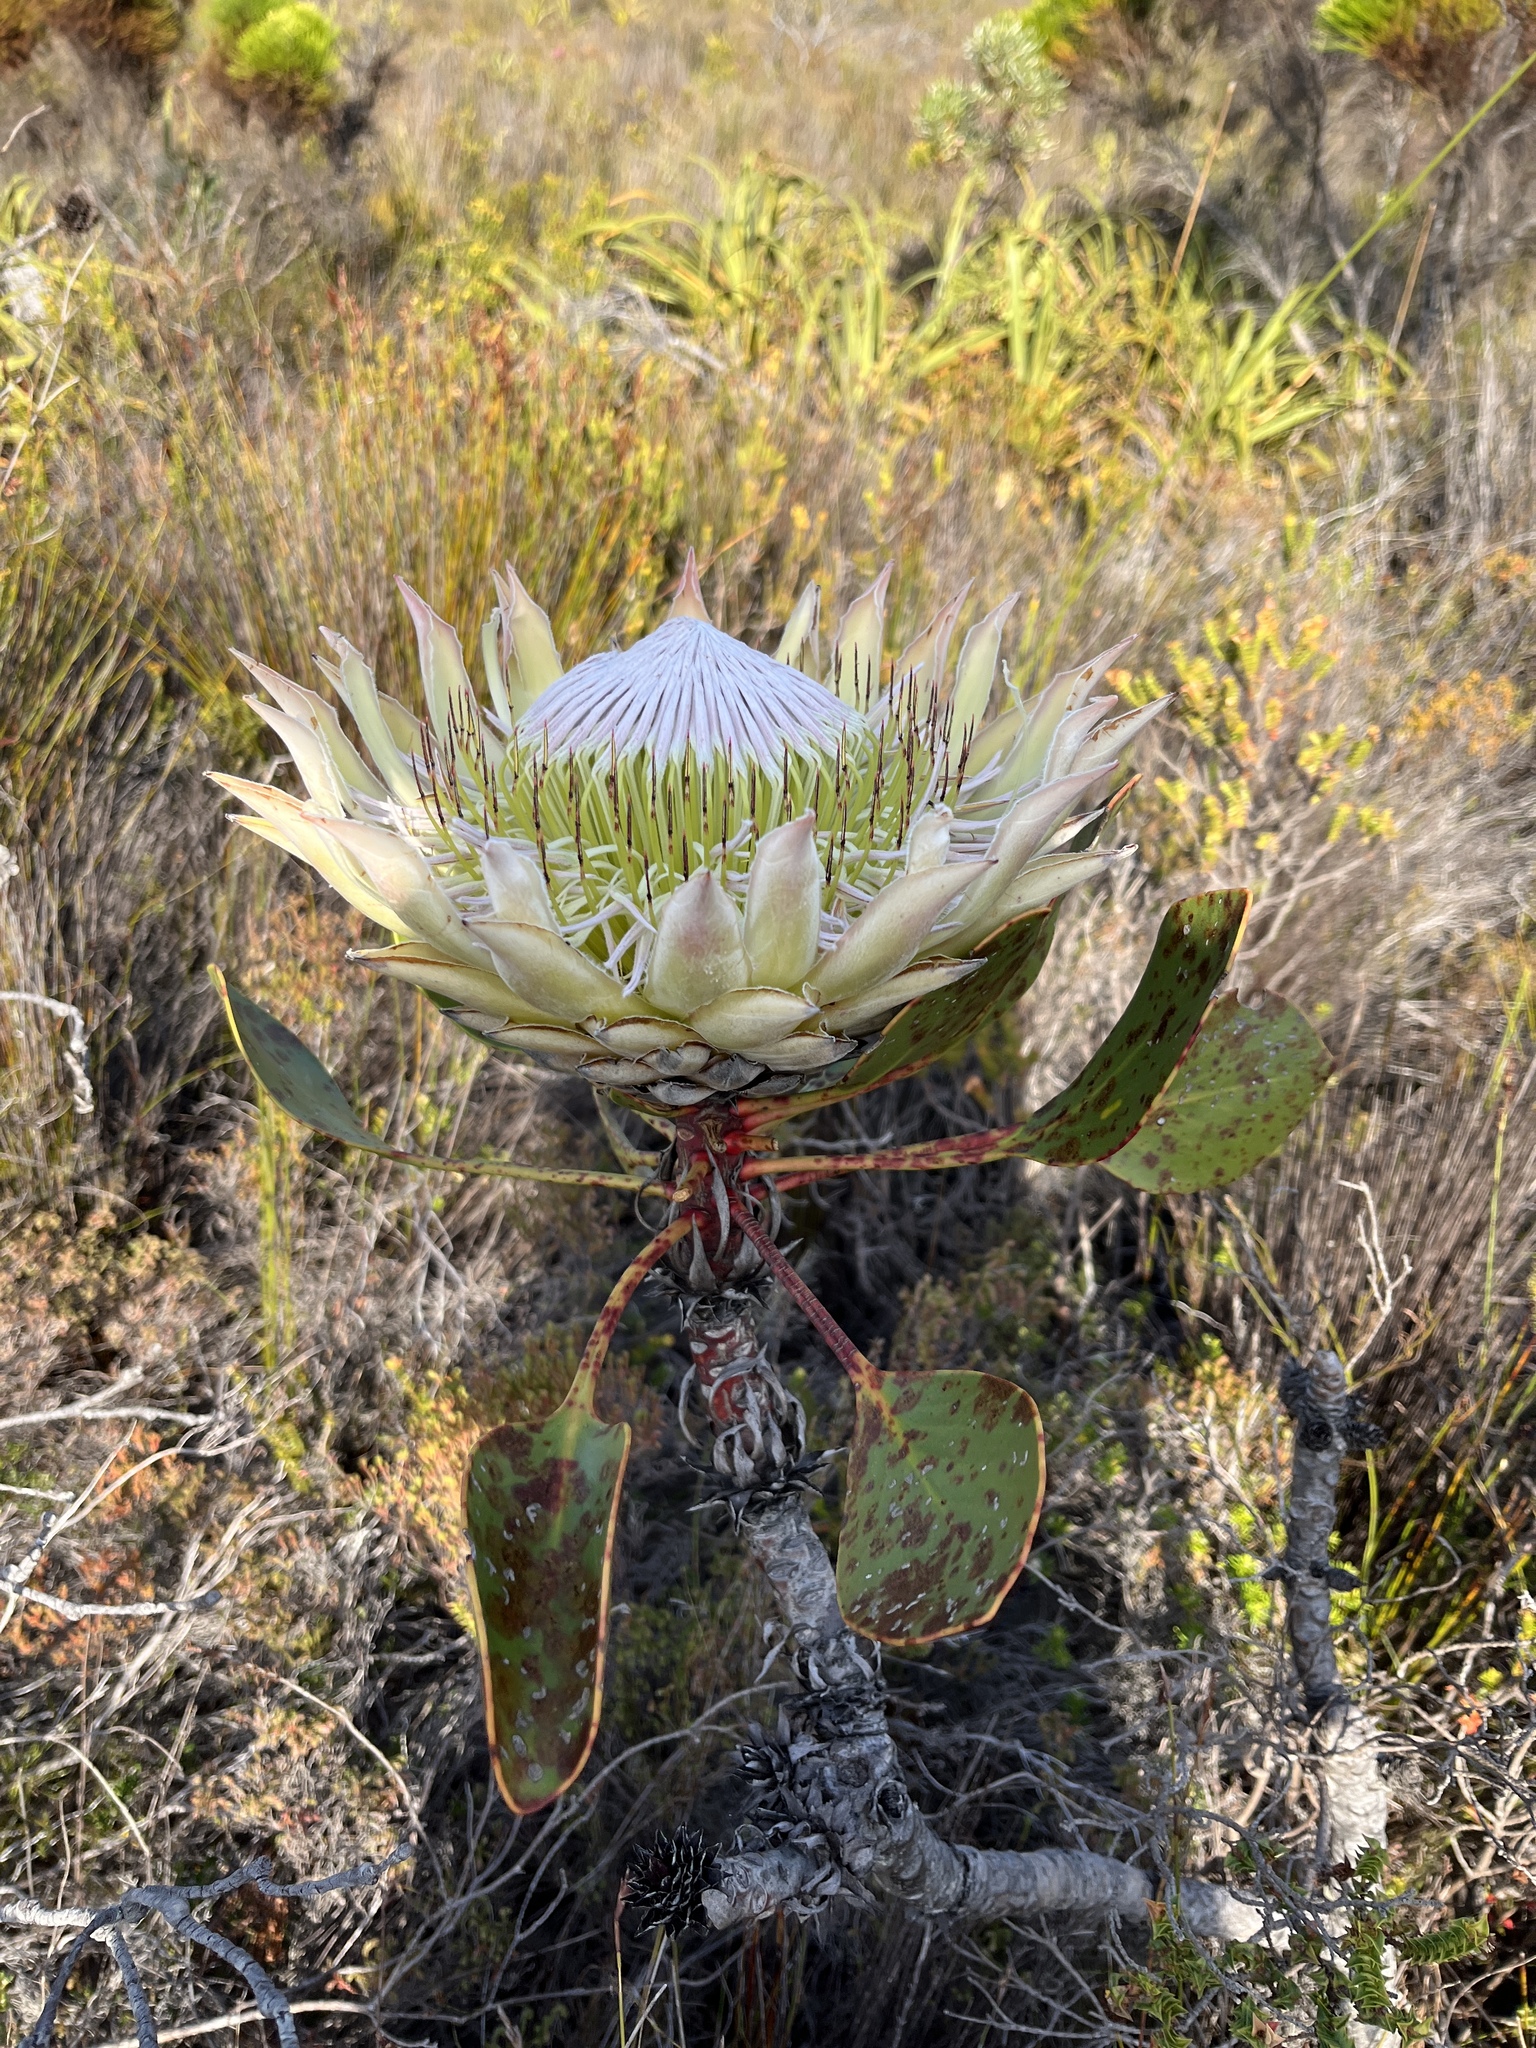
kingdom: Plantae
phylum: Tracheophyta
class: Magnoliopsida
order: Proteales
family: Proteaceae
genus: Protea
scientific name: Protea cynaroides
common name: King protea
